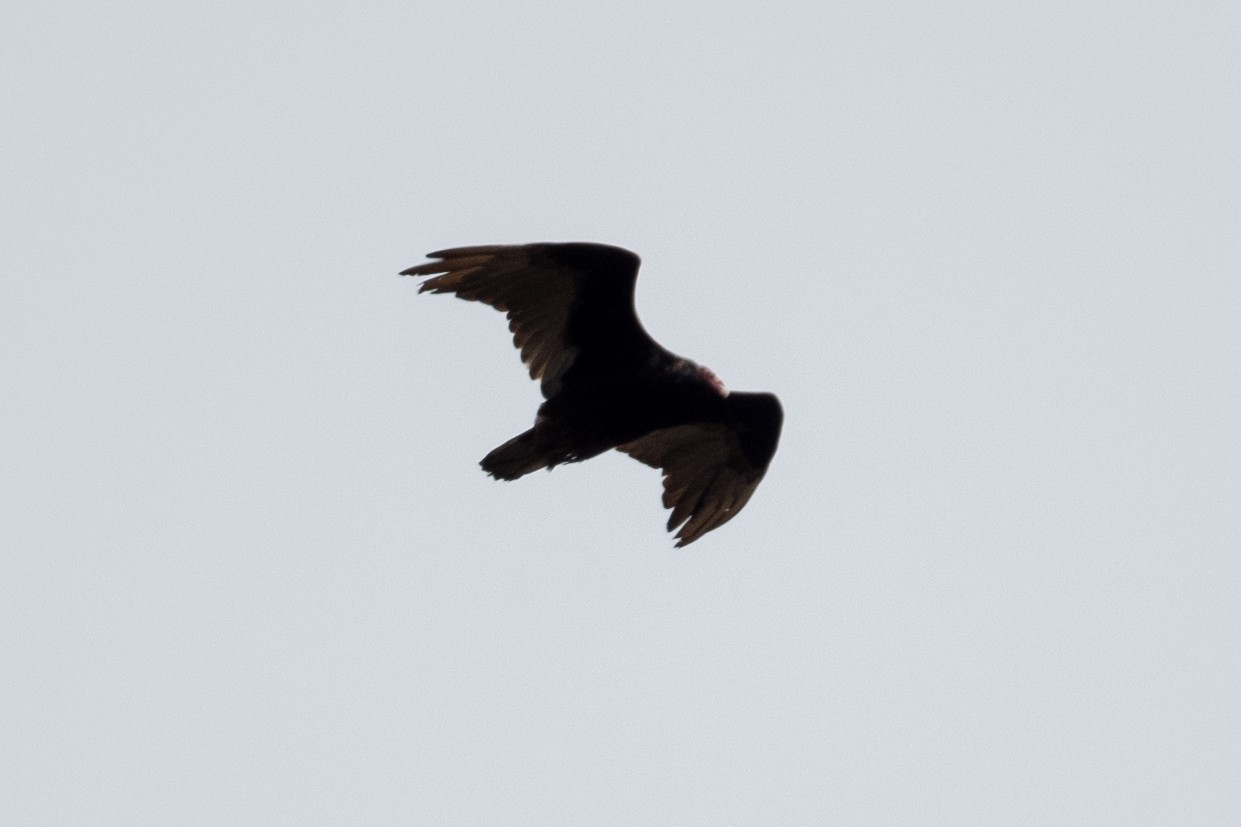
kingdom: Animalia
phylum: Chordata
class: Aves
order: Accipitriformes
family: Cathartidae
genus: Cathartes
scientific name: Cathartes aura
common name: Turkey vulture
